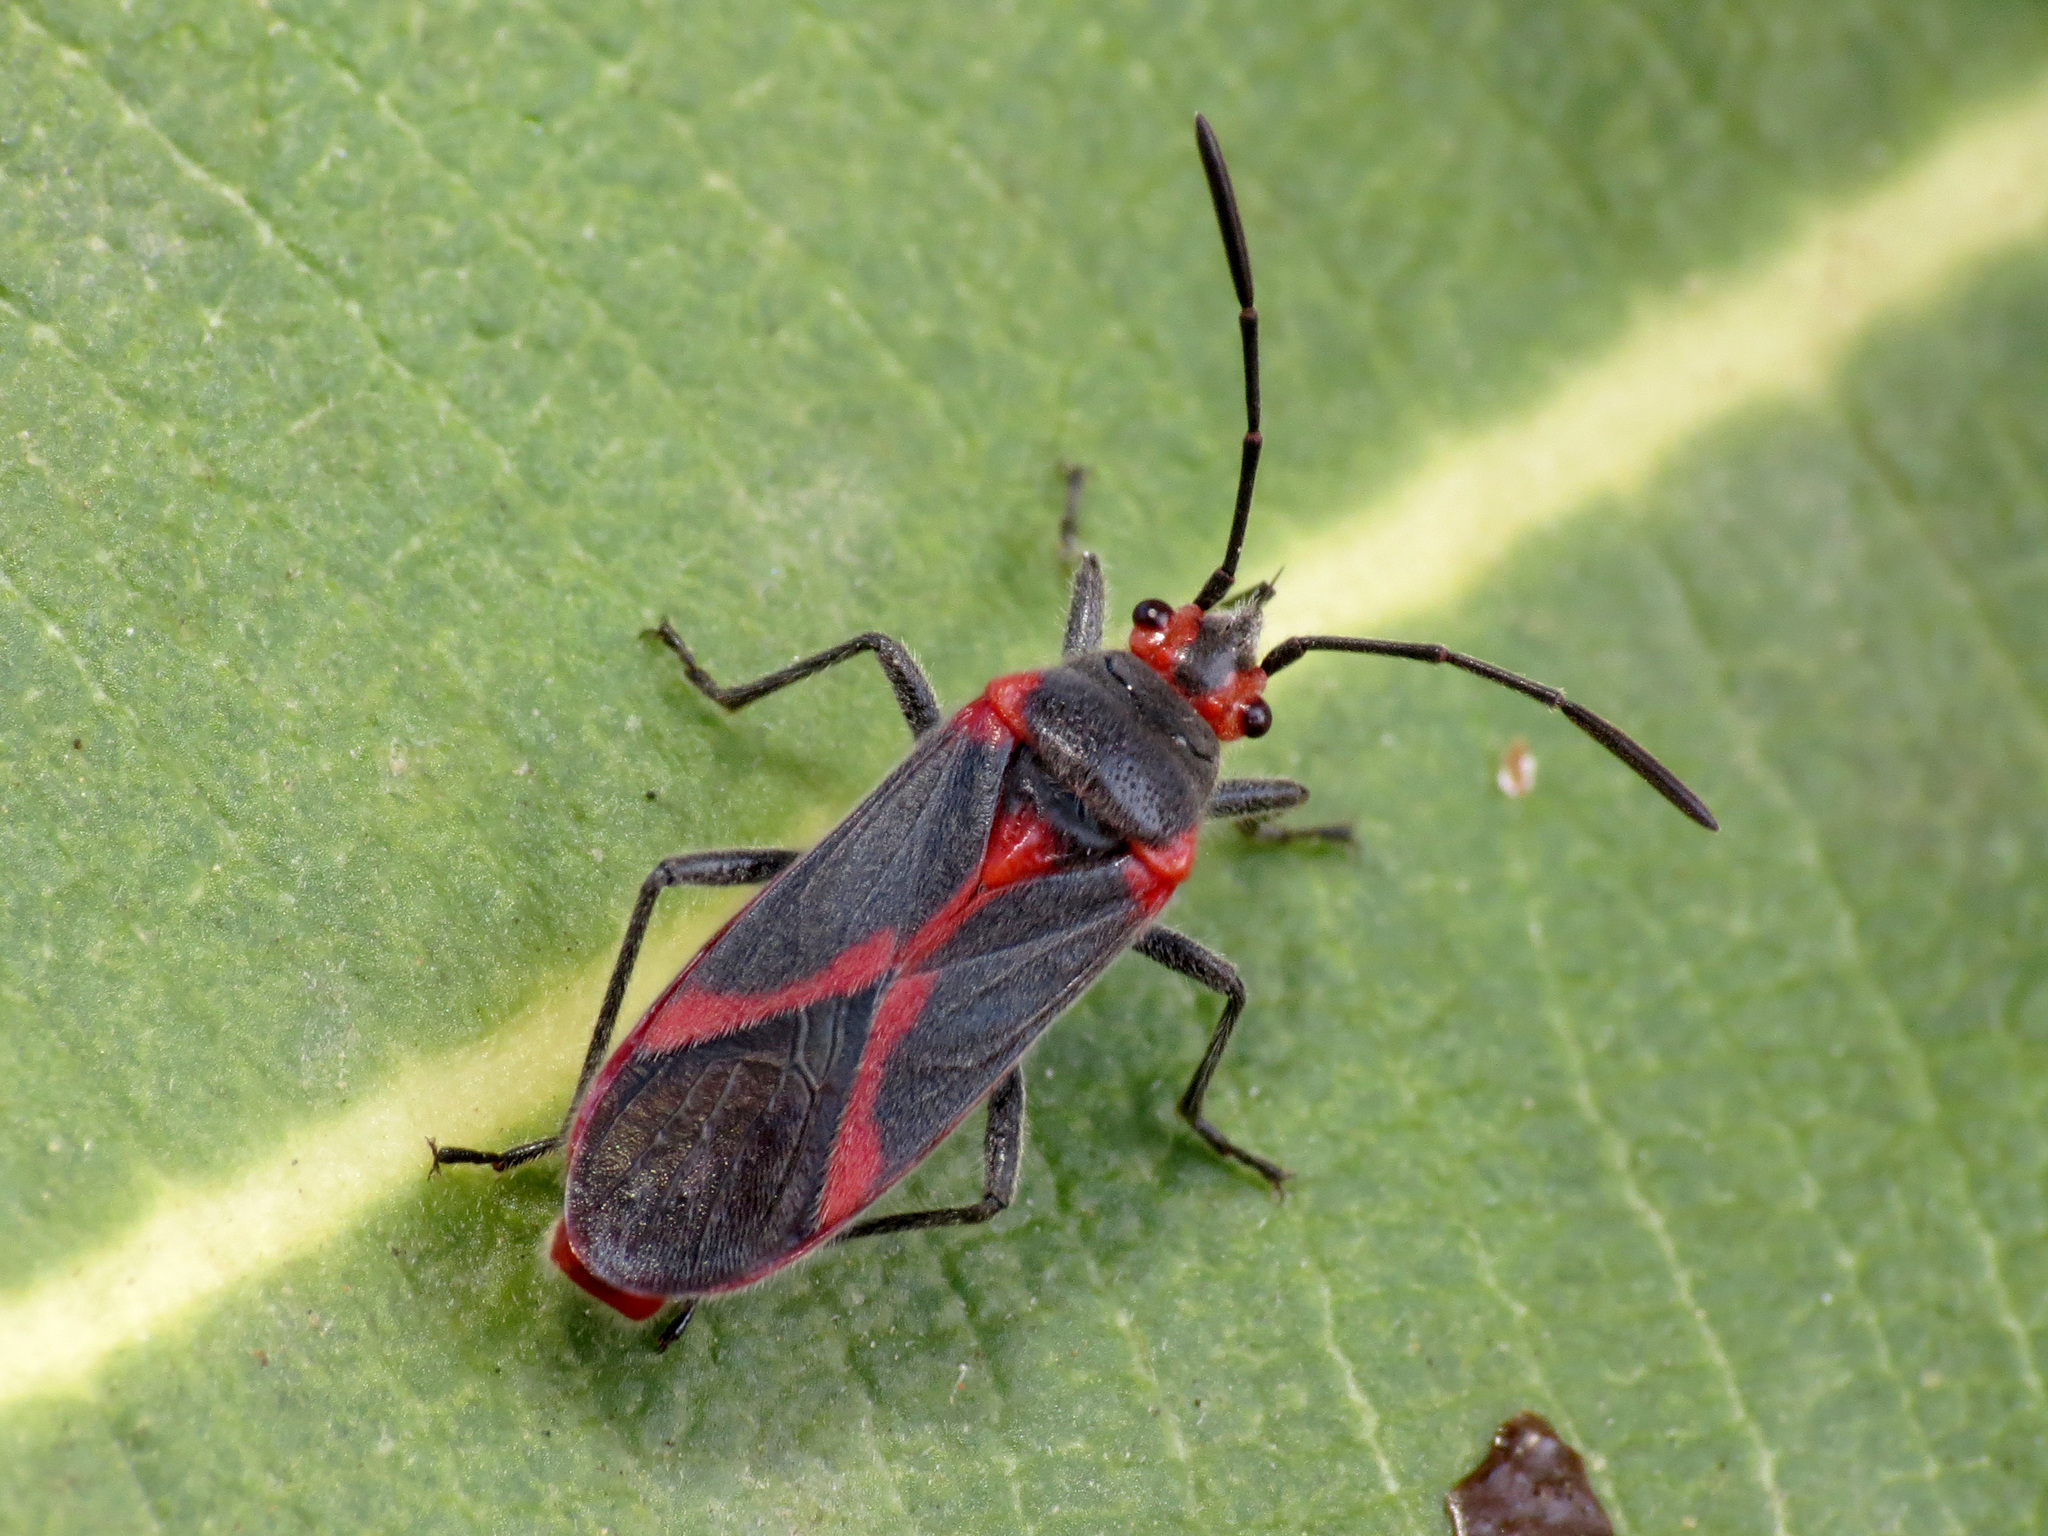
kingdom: Animalia
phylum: Arthropoda
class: Insecta
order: Hemiptera
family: Lygaeidae
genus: Caenocoris
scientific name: Caenocoris nerii
